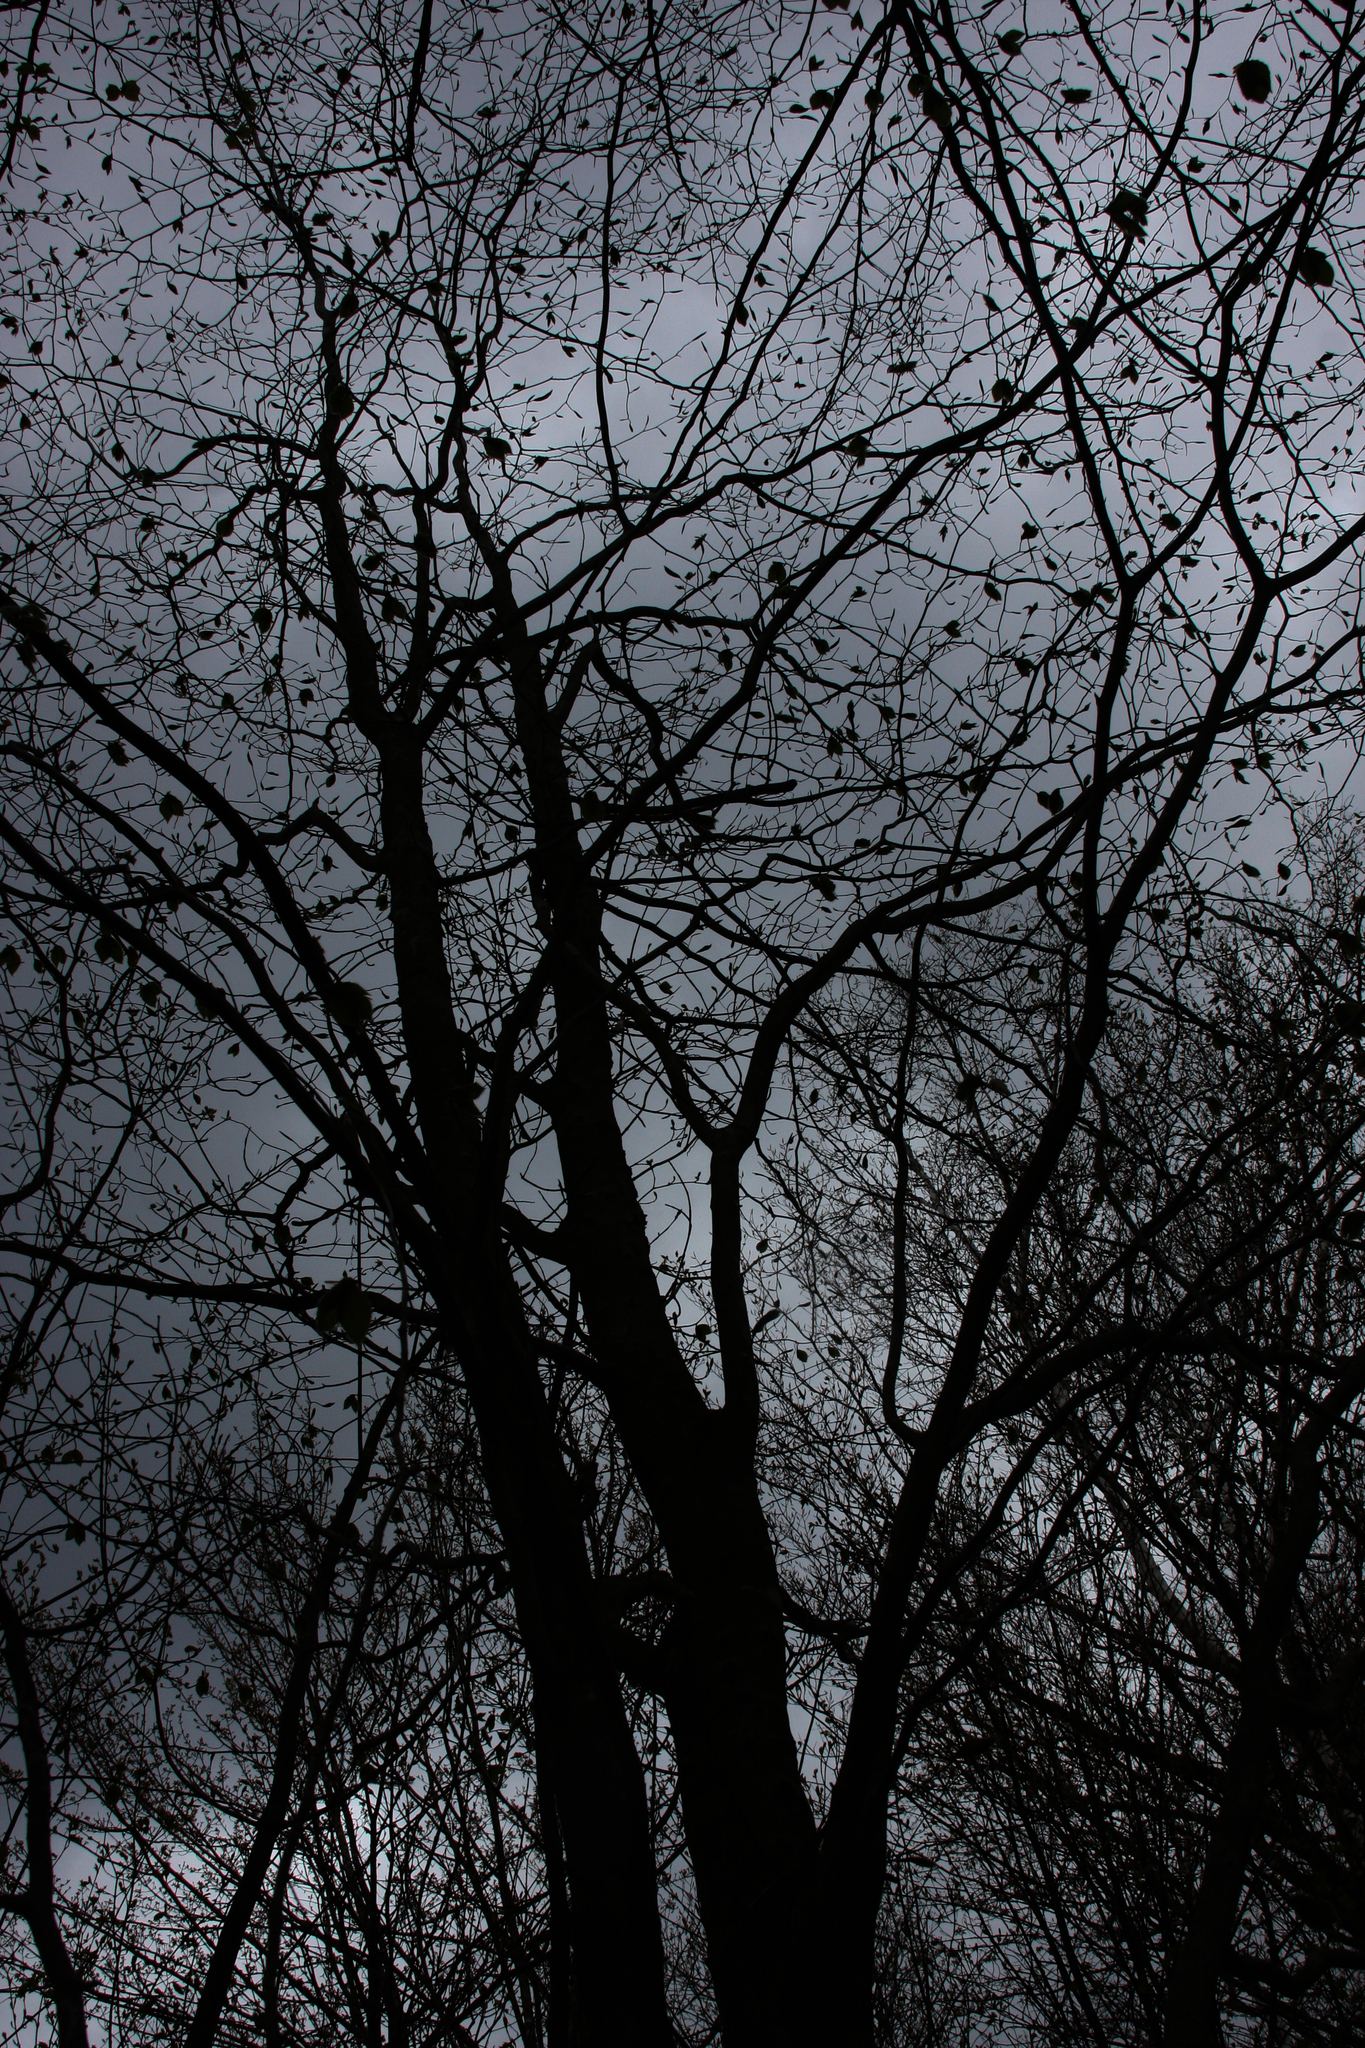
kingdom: Plantae
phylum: Tracheophyta
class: Magnoliopsida
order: Fagales
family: Fagaceae
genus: Fagus
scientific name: Fagus grandifolia
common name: American beech
